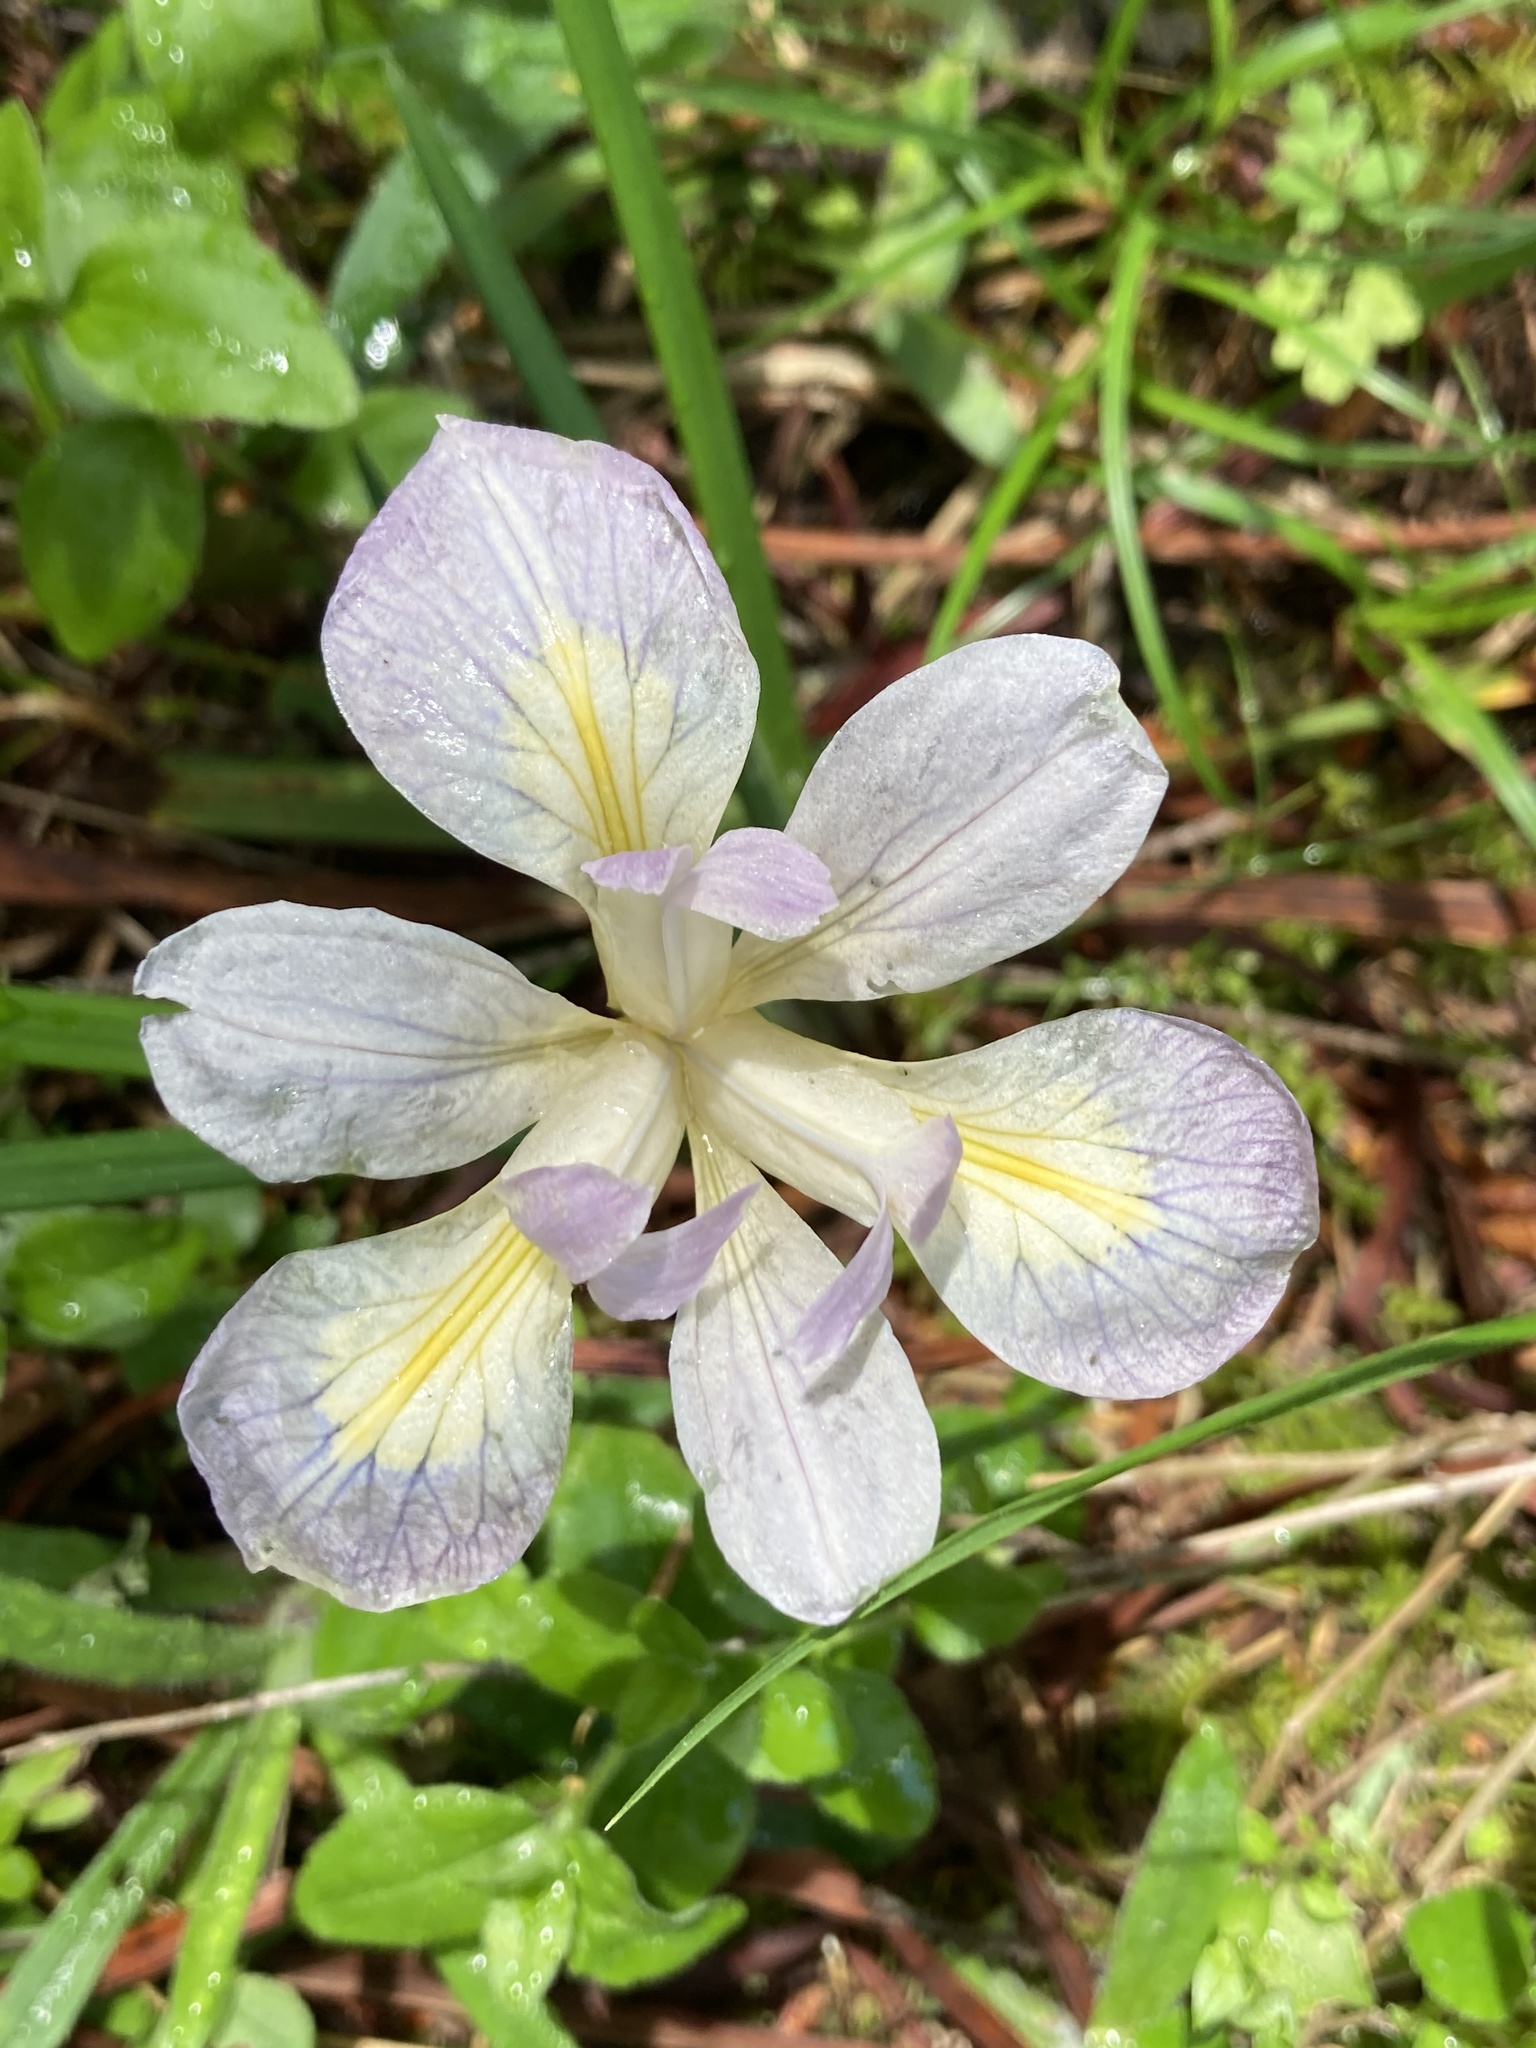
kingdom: Plantae
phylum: Tracheophyta
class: Liliopsida
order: Asparagales
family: Iridaceae
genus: Iris
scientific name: Iris douglasiana
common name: Marin iris
